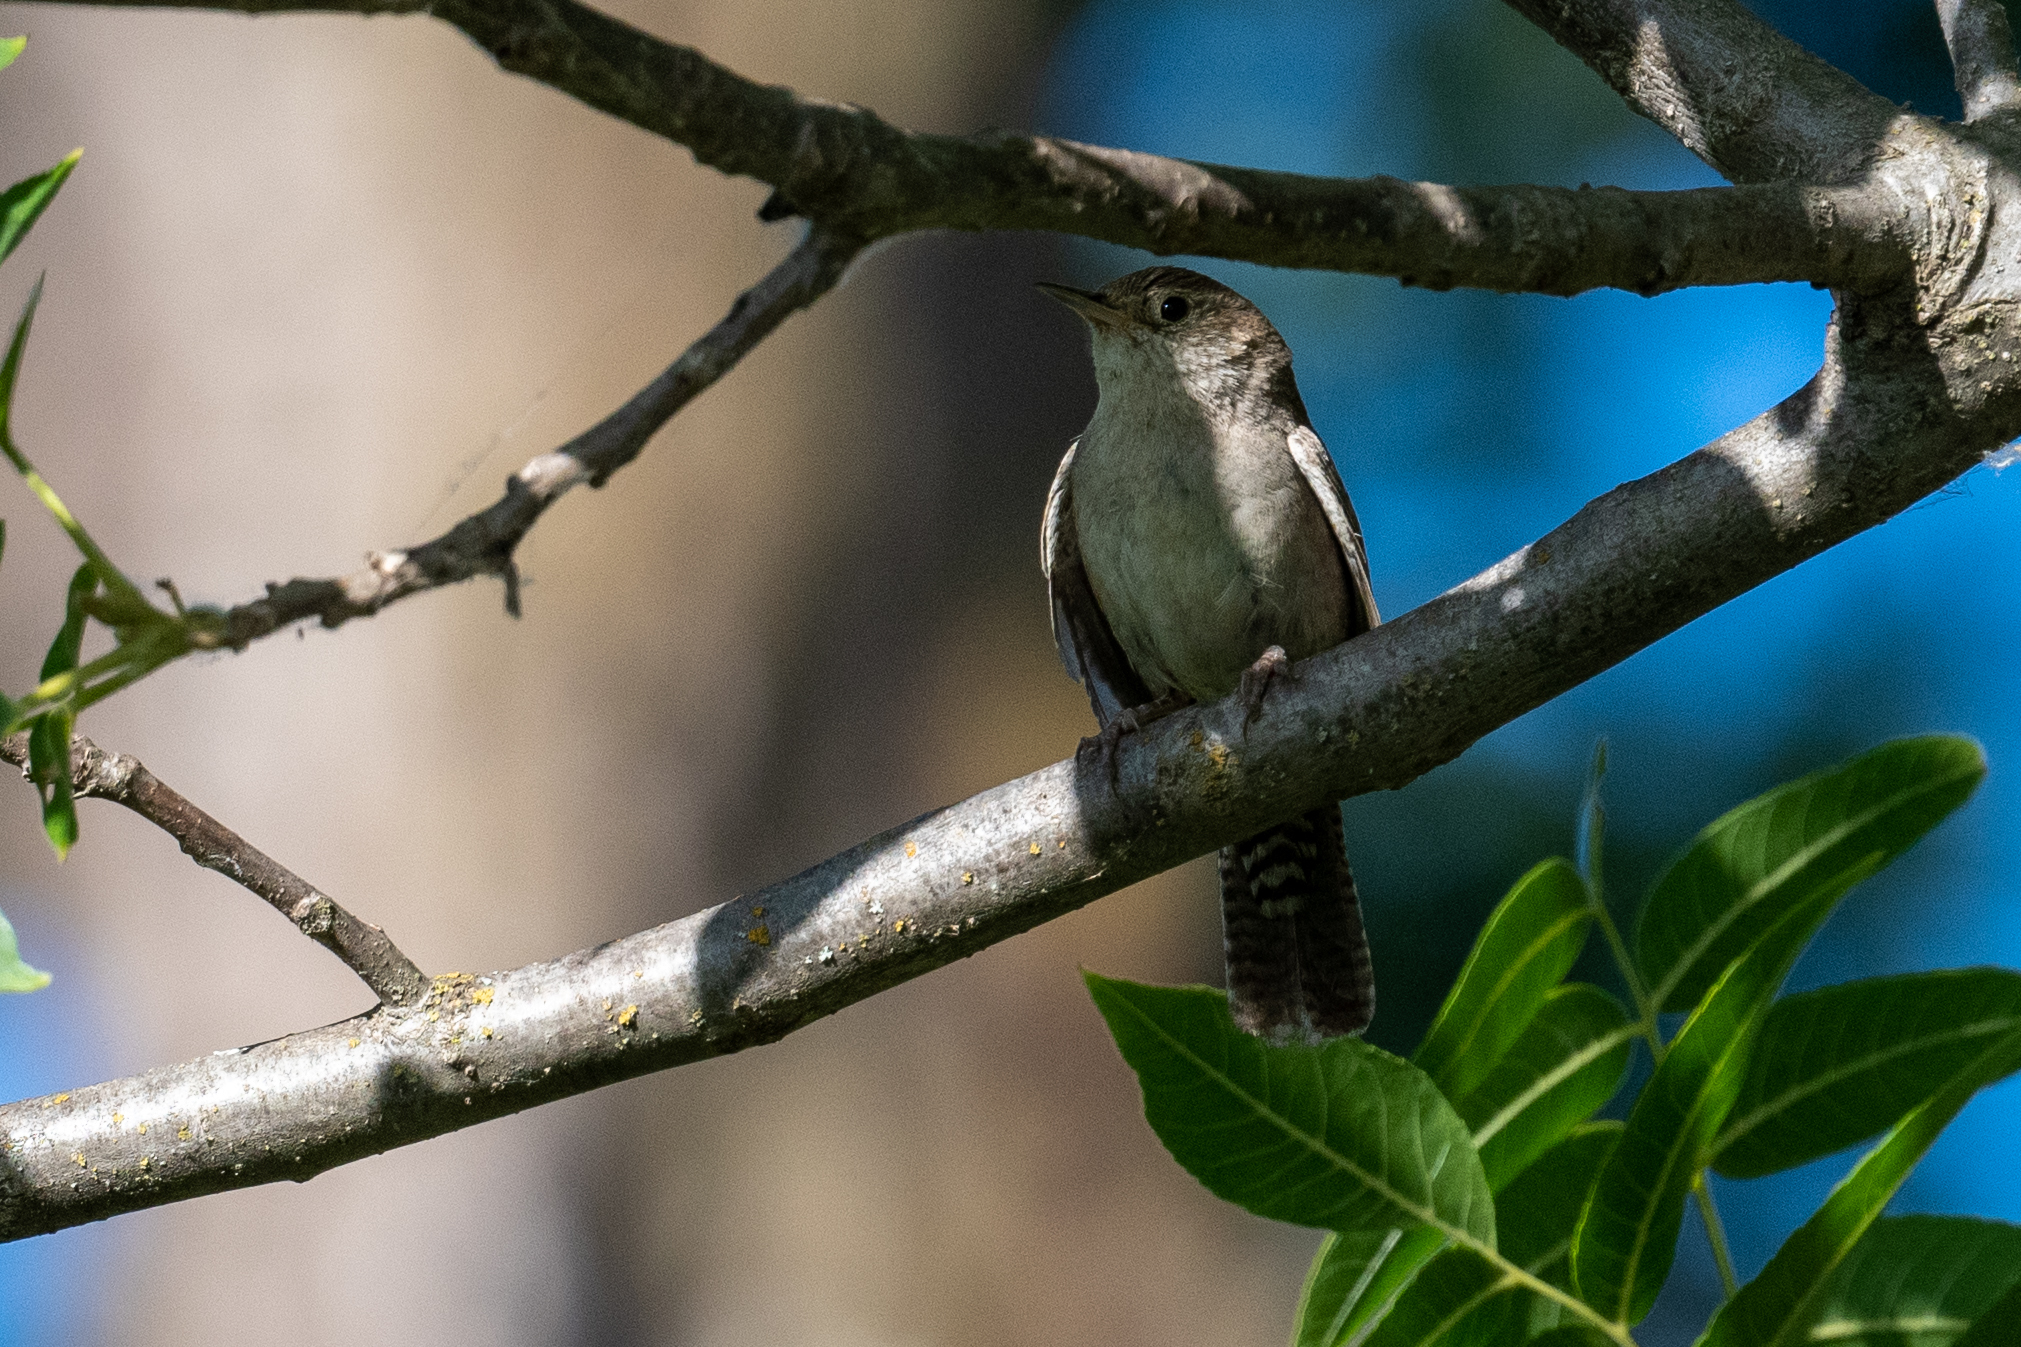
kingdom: Animalia
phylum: Chordata
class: Aves
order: Passeriformes
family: Troglodytidae
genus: Troglodytes
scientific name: Troglodytes aedon
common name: House wren
